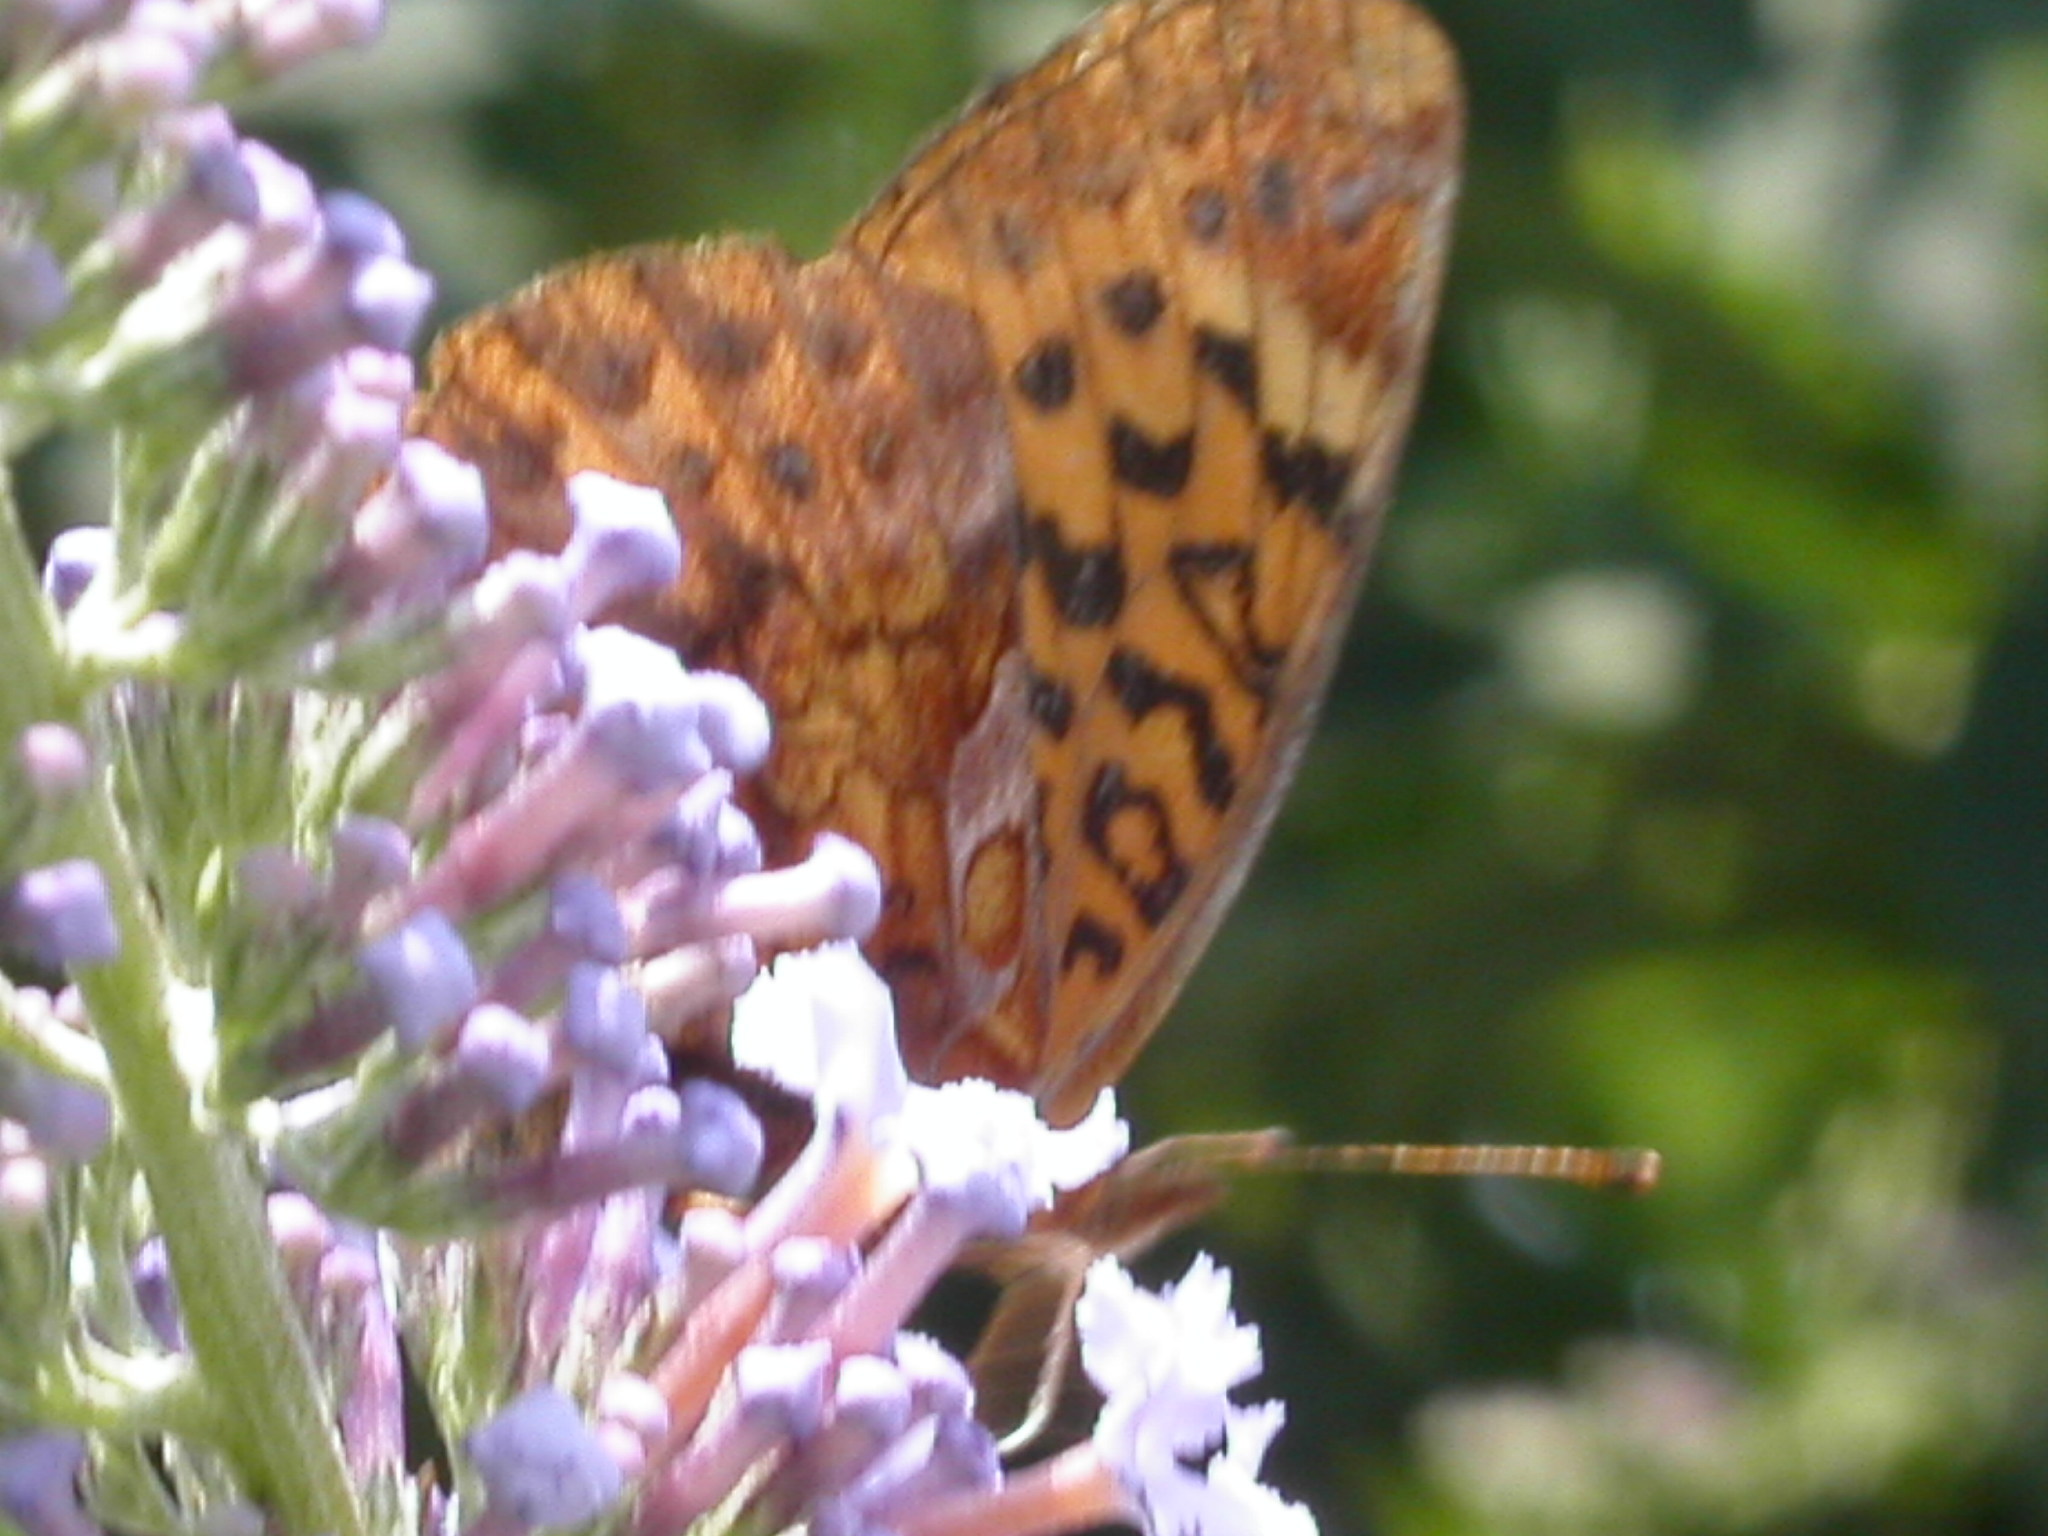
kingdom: Animalia
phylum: Arthropoda
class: Insecta
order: Lepidoptera
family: Nymphalidae
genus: Clossiana
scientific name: Clossiana toddi
